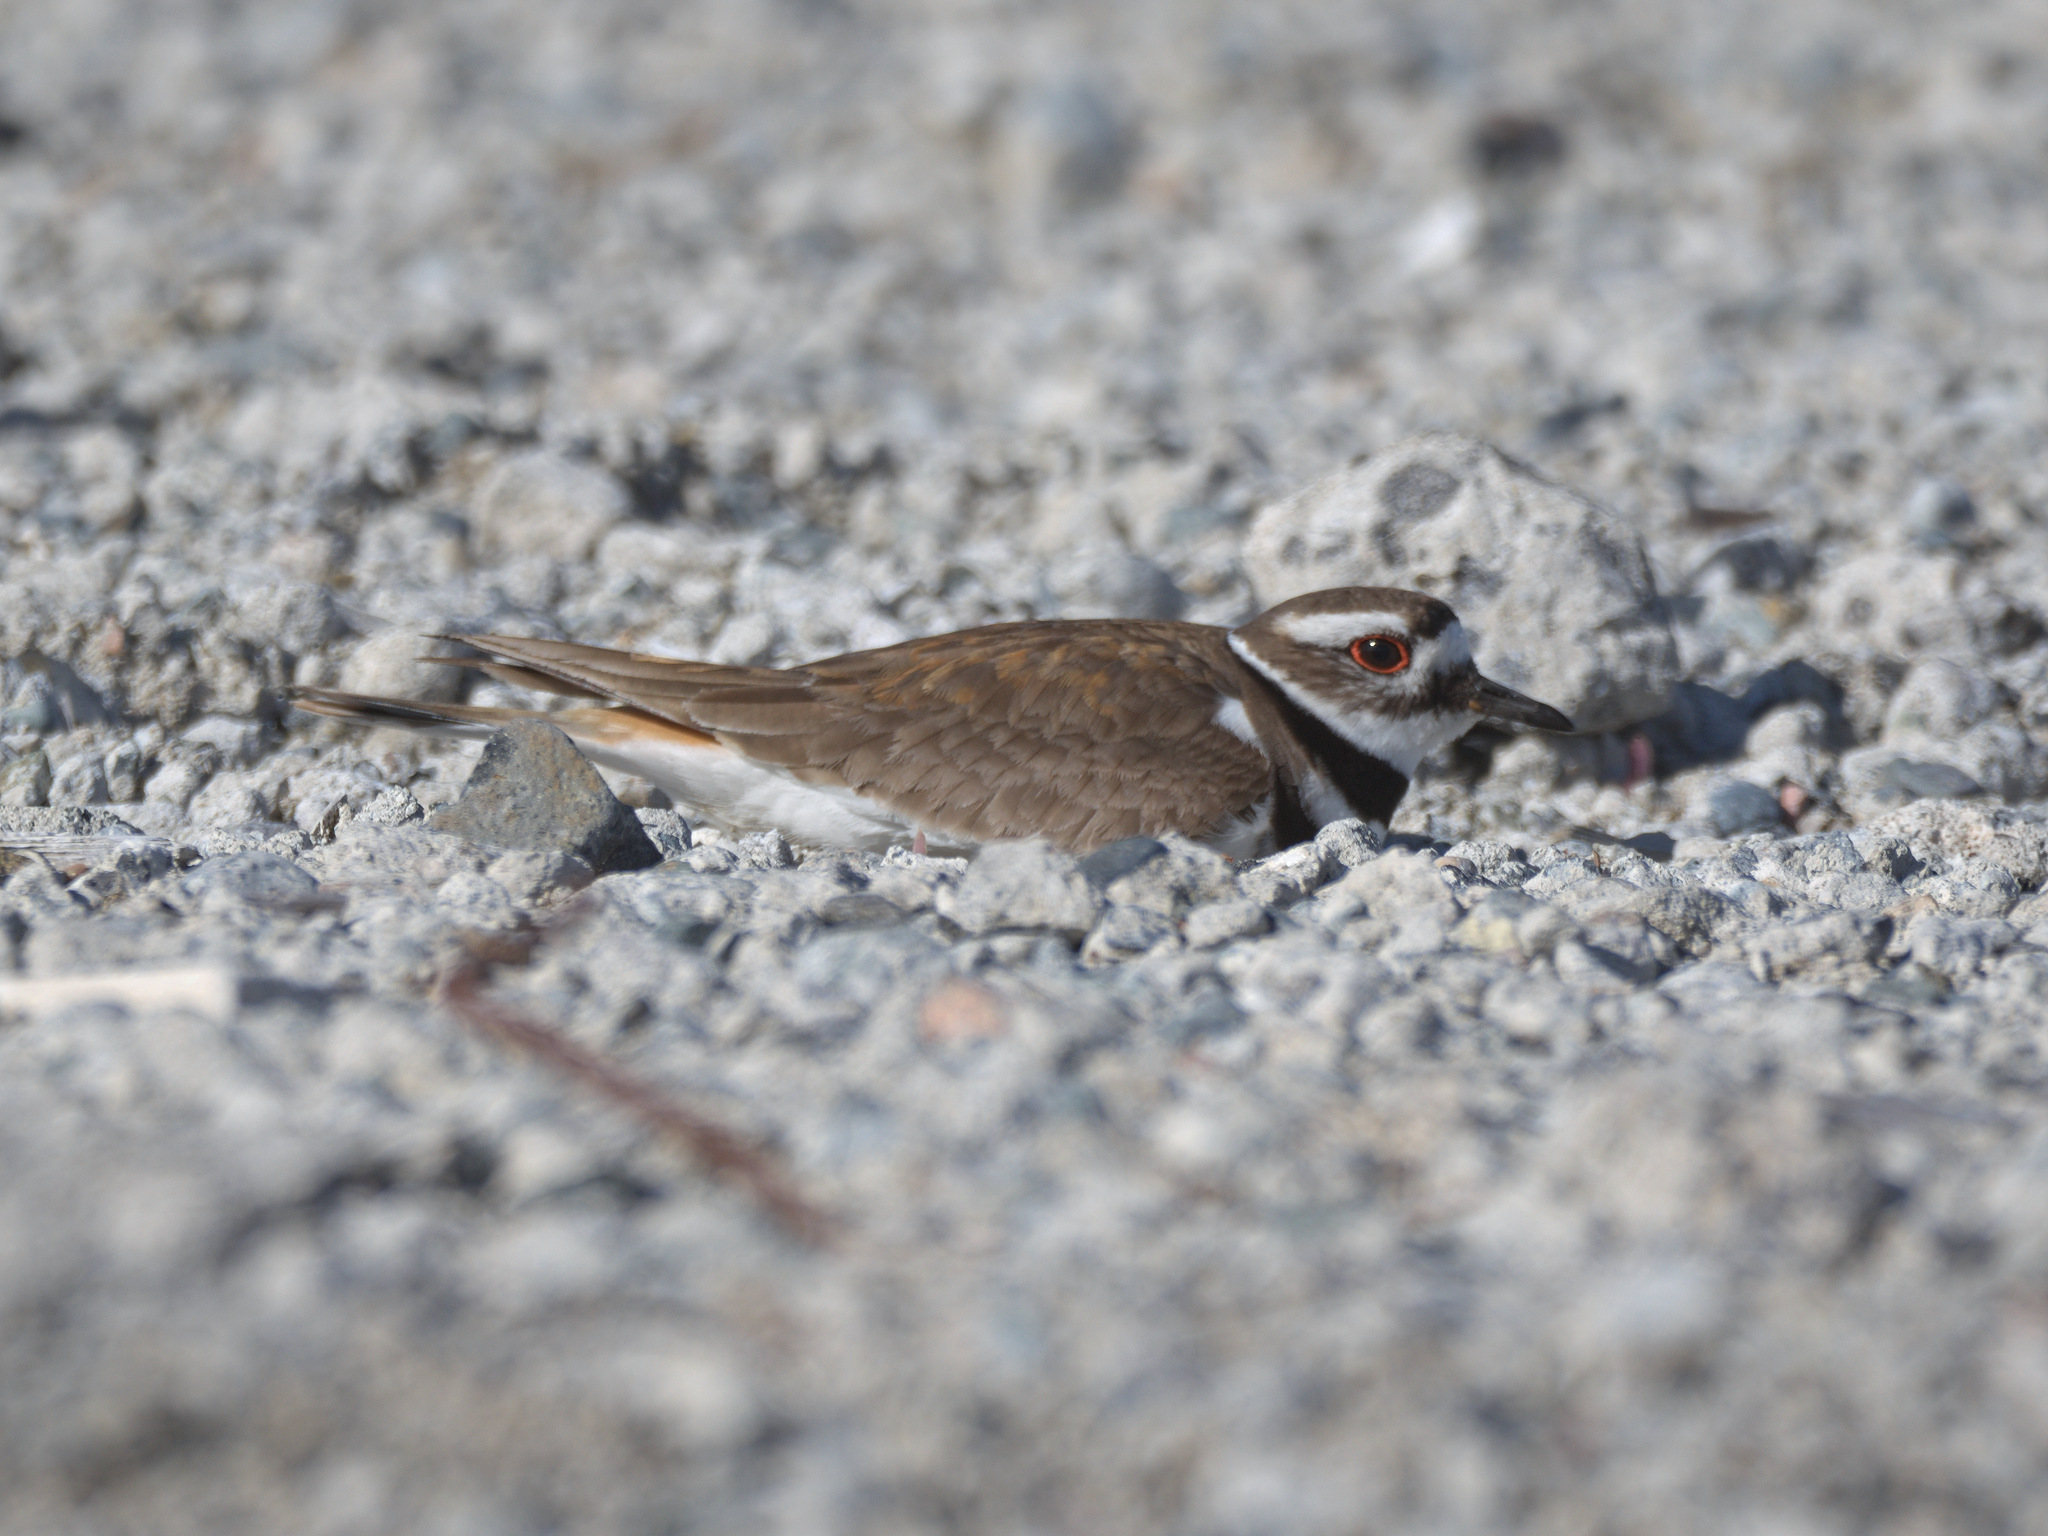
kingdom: Animalia
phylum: Chordata
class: Aves
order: Charadriiformes
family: Charadriidae
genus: Charadrius
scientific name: Charadrius vociferus
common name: Killdeer
